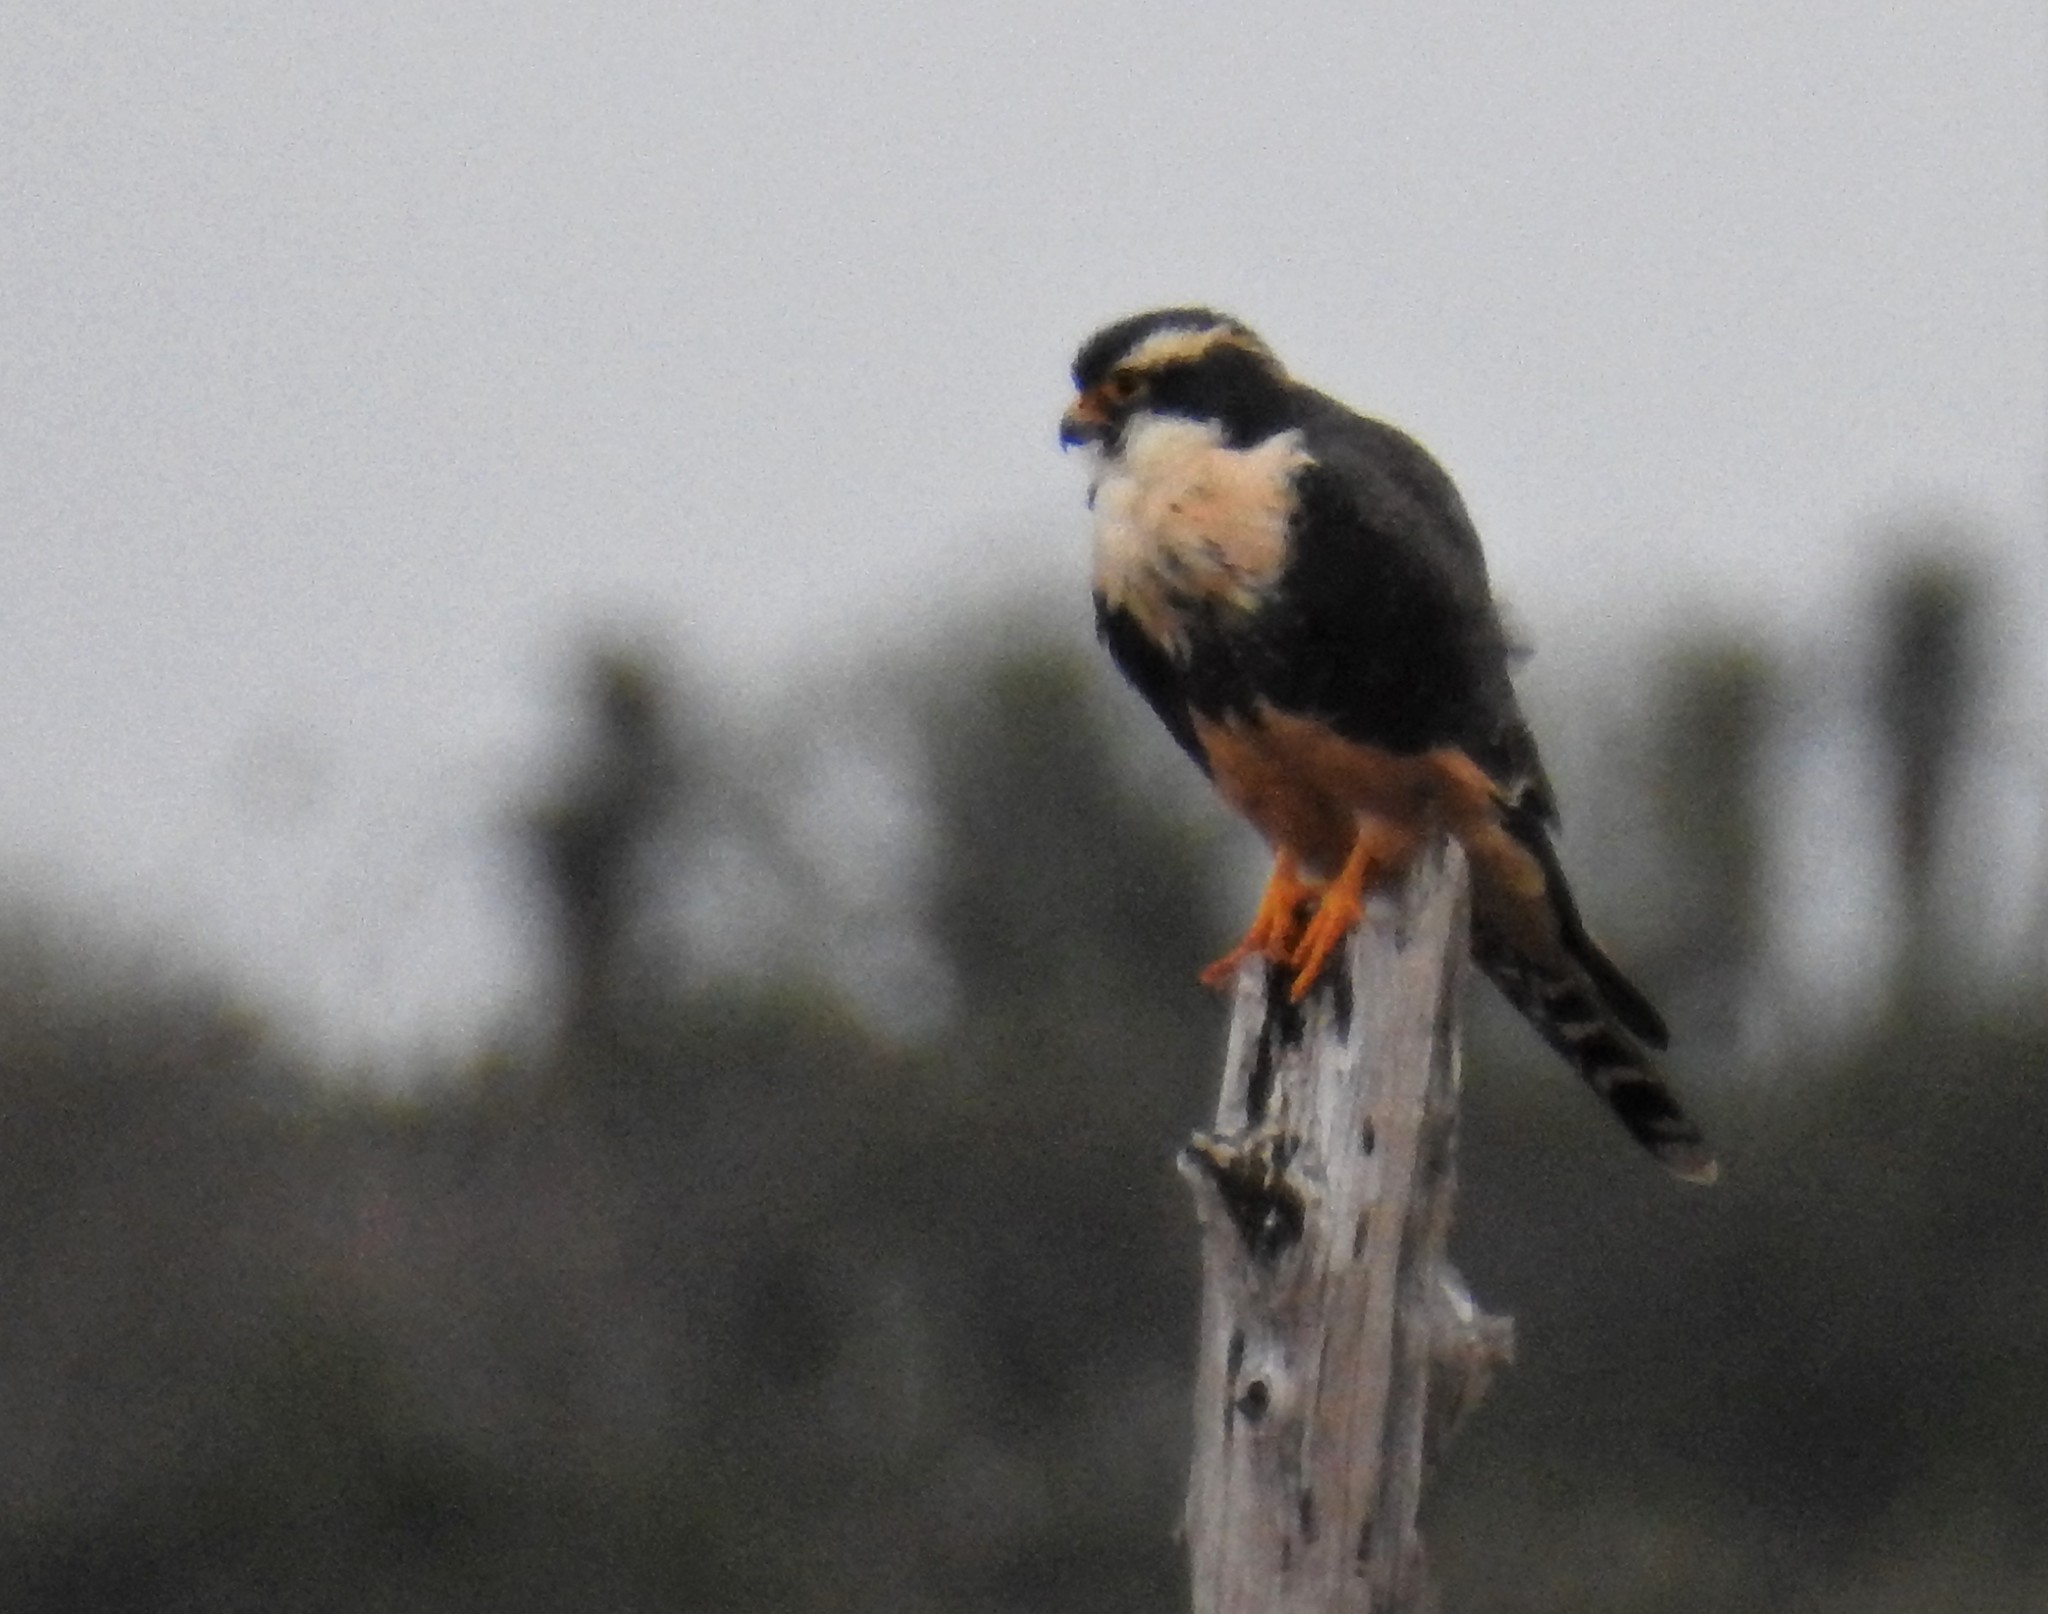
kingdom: Animalia
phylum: Chordata
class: Aves
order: Falconiformes
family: Falconidae
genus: Falco
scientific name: Falco femoralis
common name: Aplomado falcon
